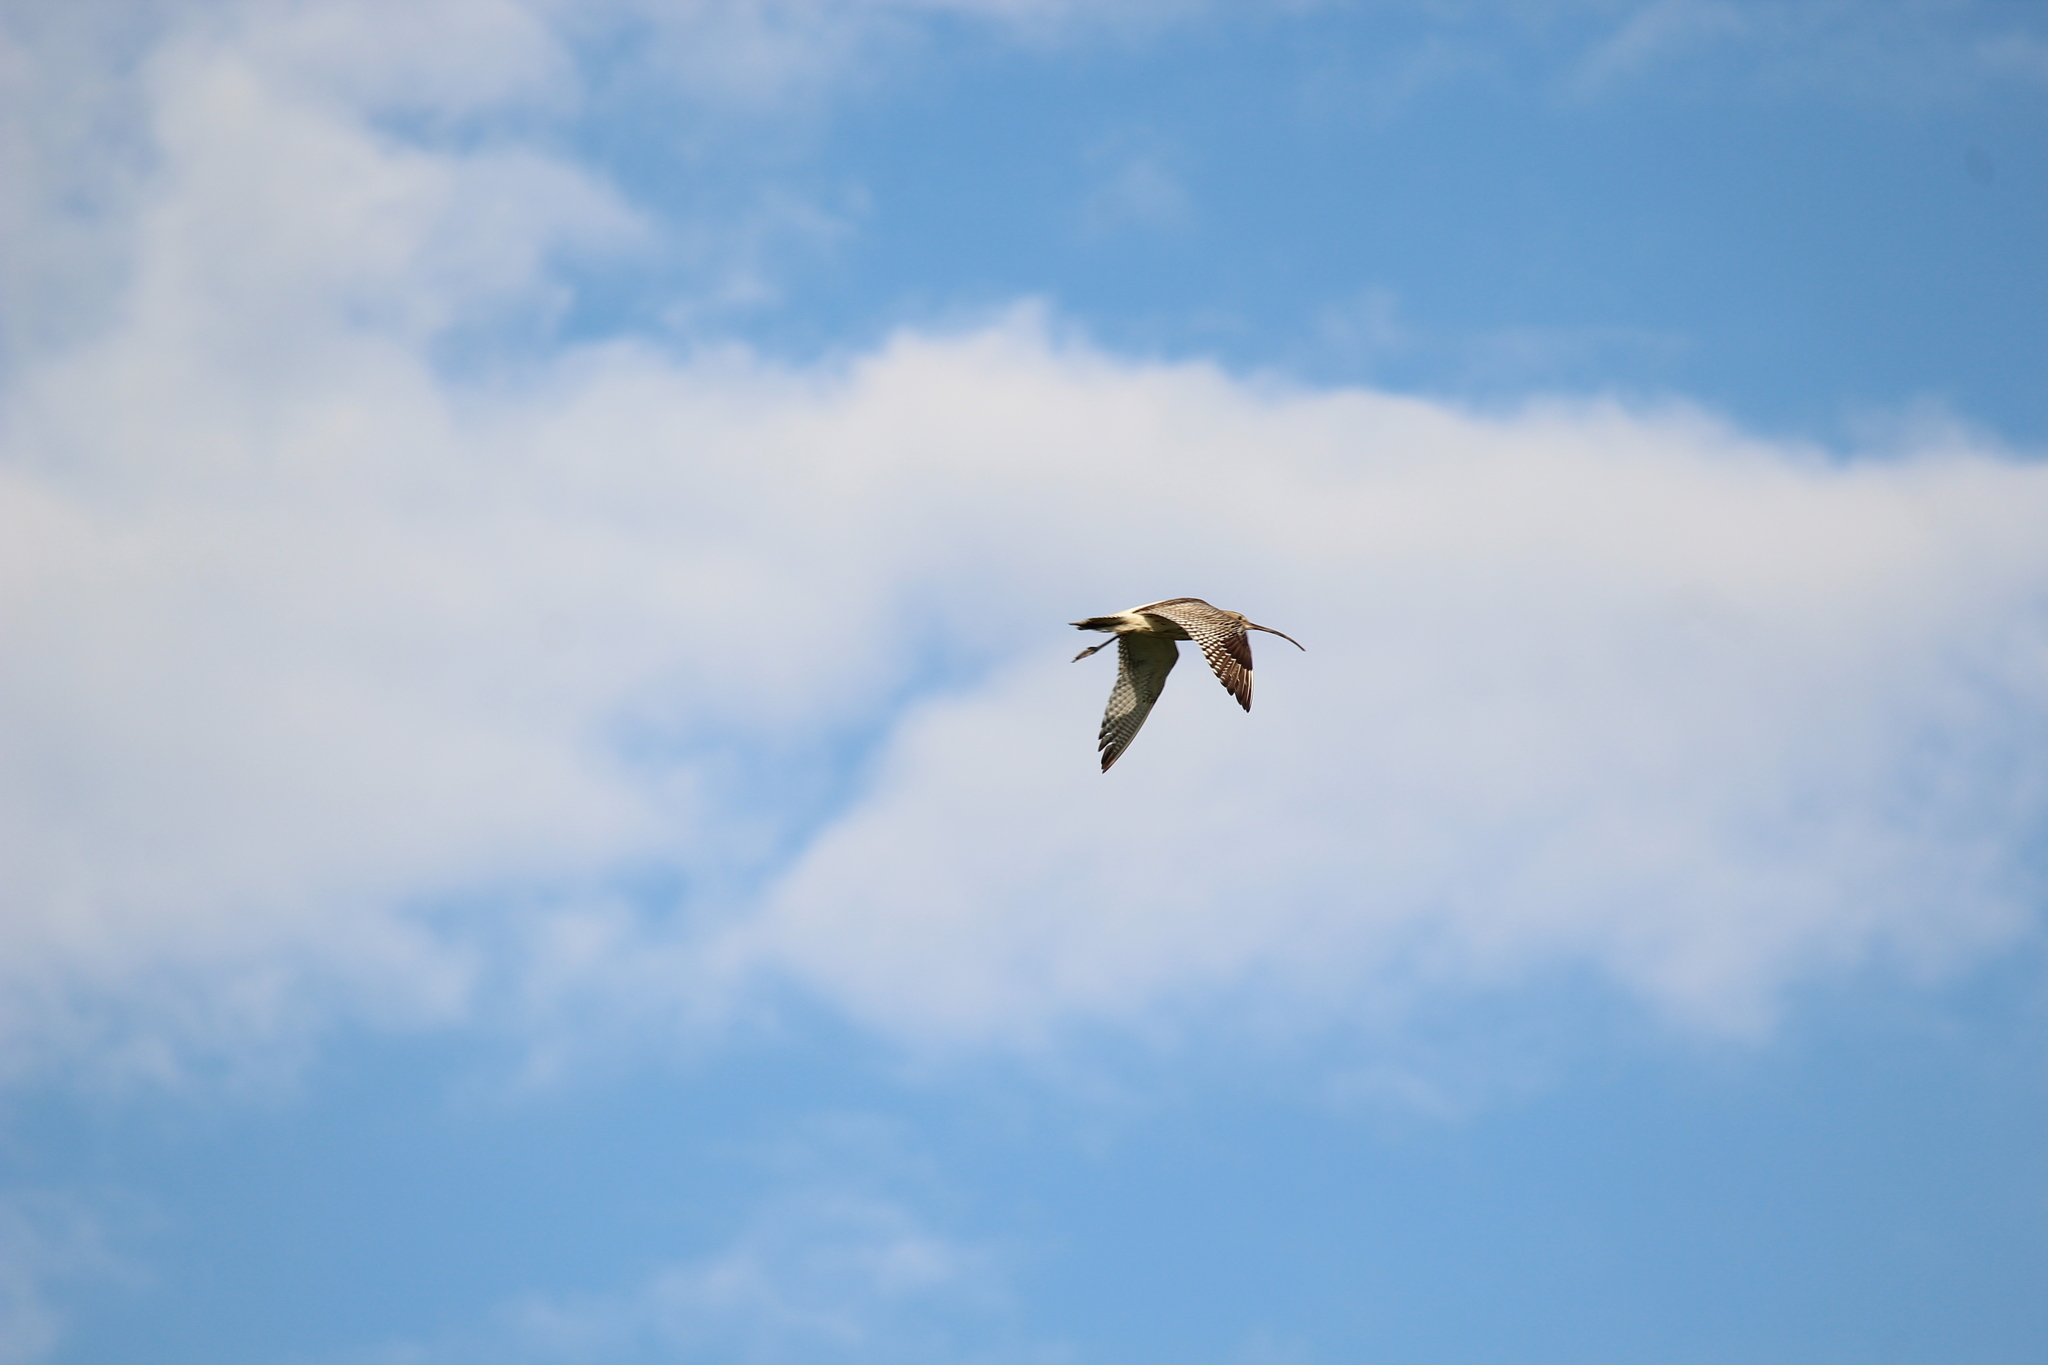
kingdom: Animalia
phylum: Chordata
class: Aves
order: Charadriiformes
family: Scolopacidae
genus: Numenius
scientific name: Numenius arquata
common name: Eurasian curlew
